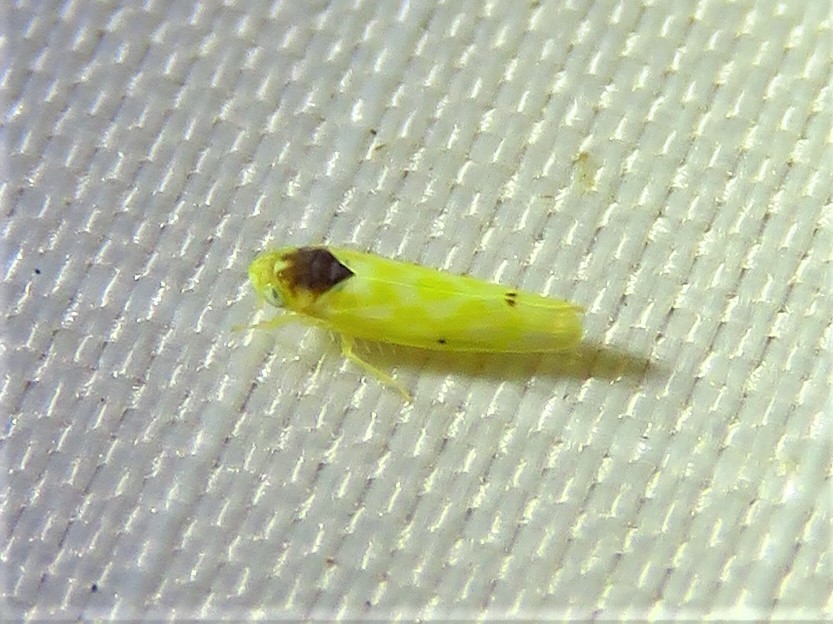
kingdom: Animalia
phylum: Arthropoda
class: Insecta
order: Hemiptera
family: Cicadellidae
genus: Eratoneura
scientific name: Eratoneura ardens
